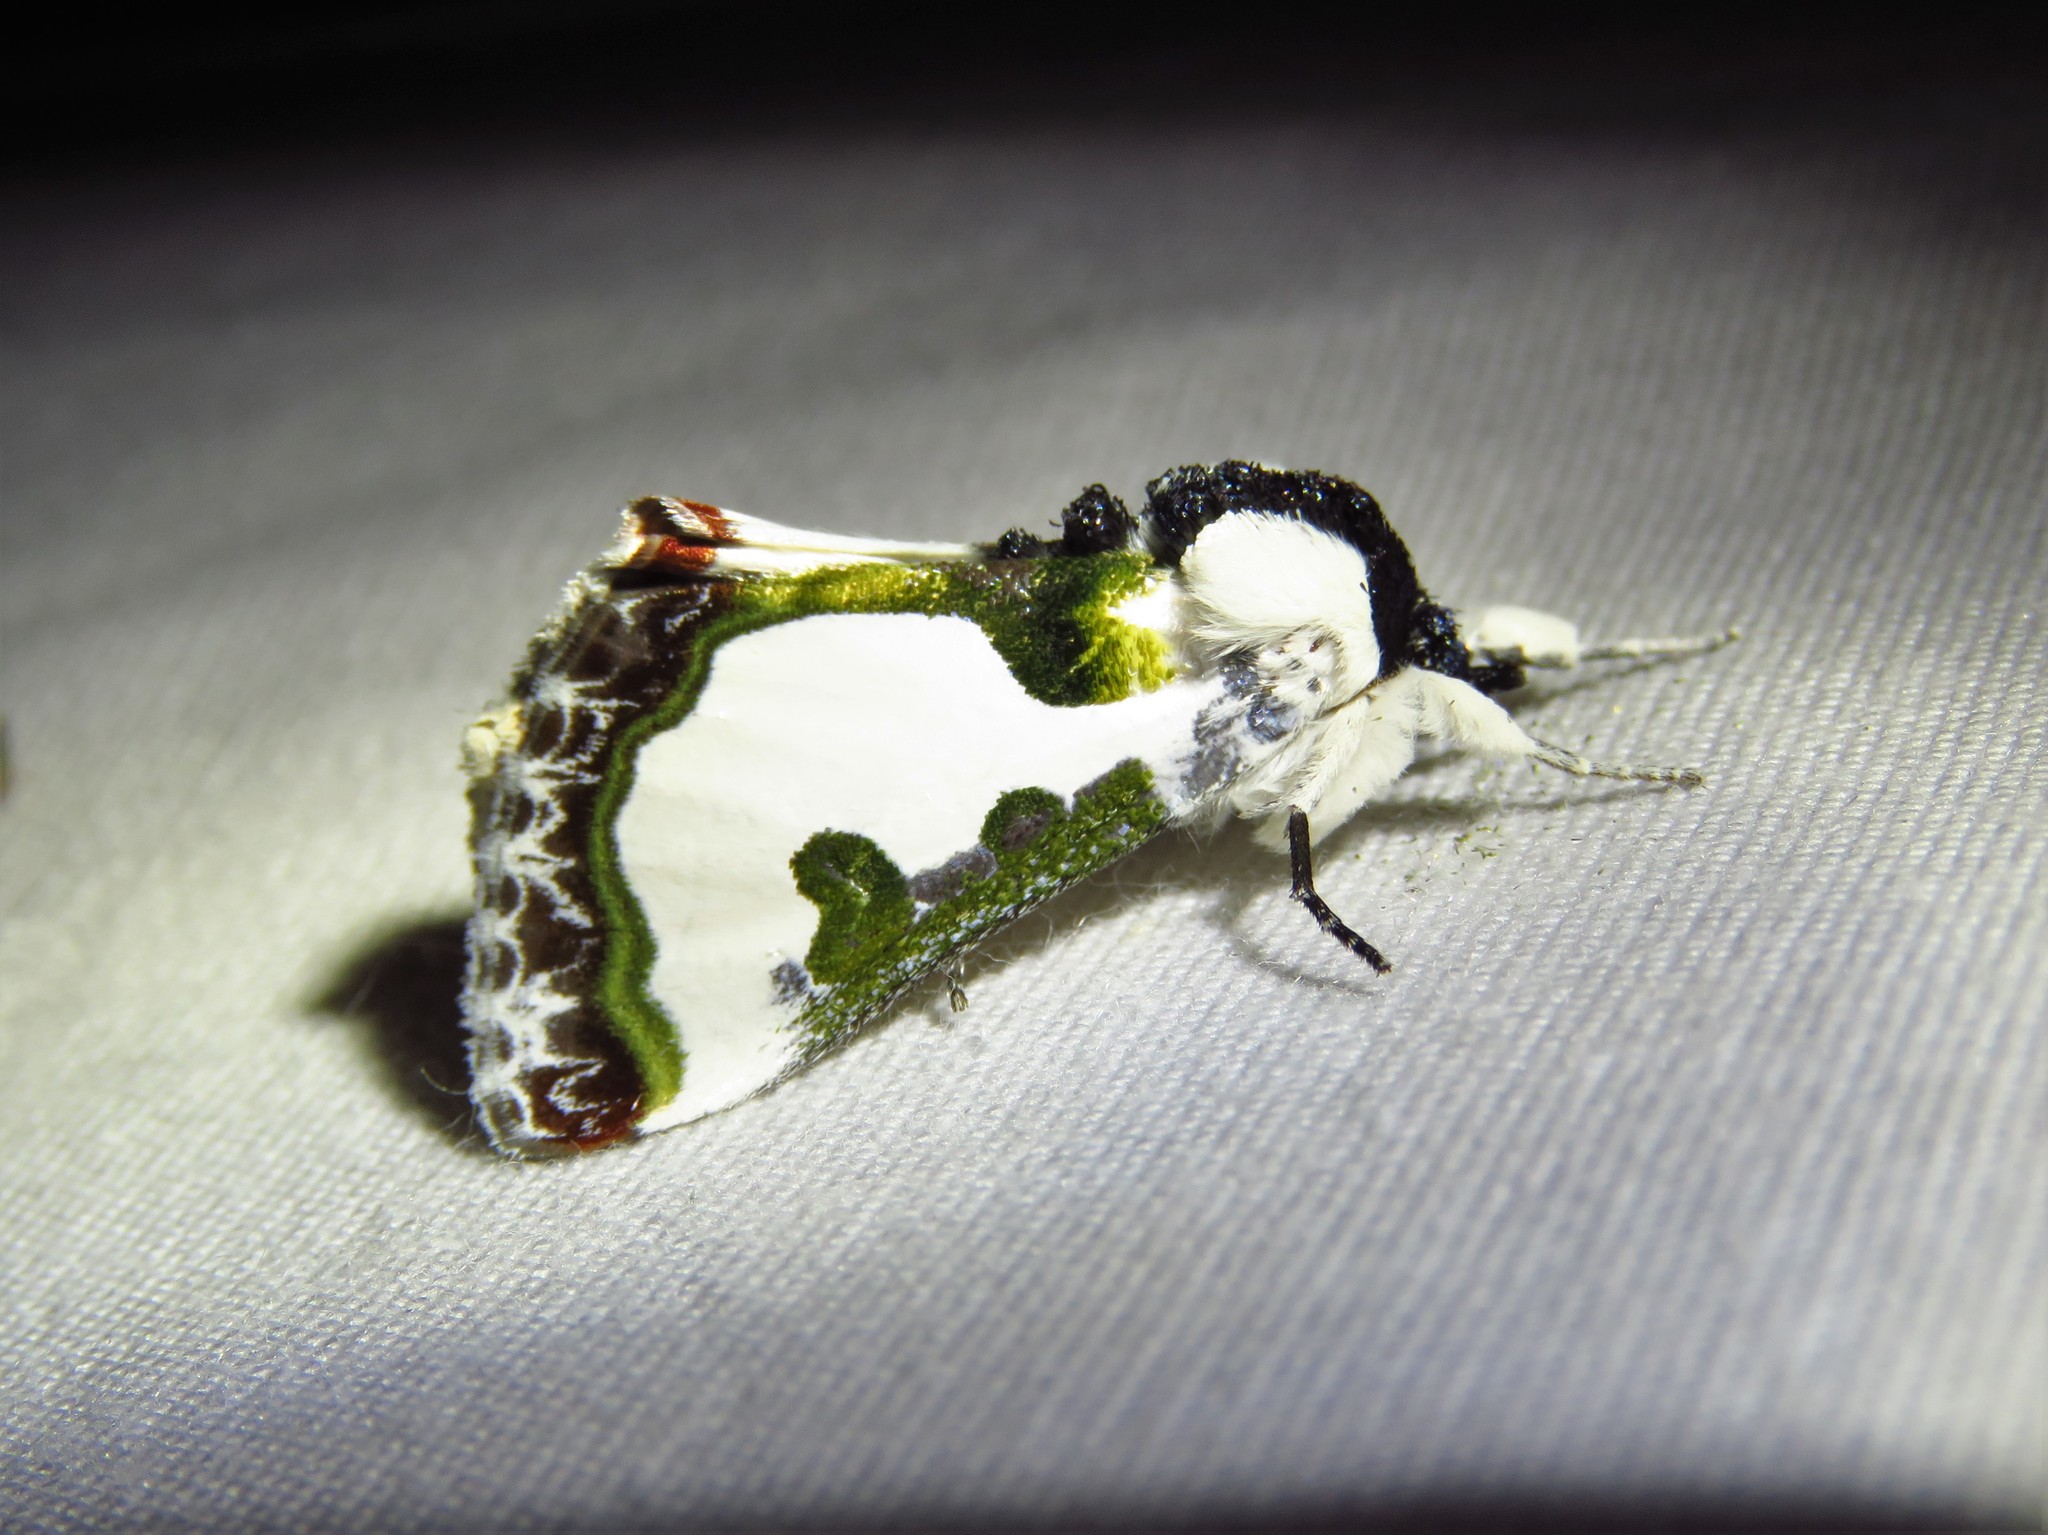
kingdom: Animalia
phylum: Arthropoda
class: Insecta
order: Lepidoptera
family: Noctuidae
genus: Xerociris
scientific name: Xerociris wilsonii
